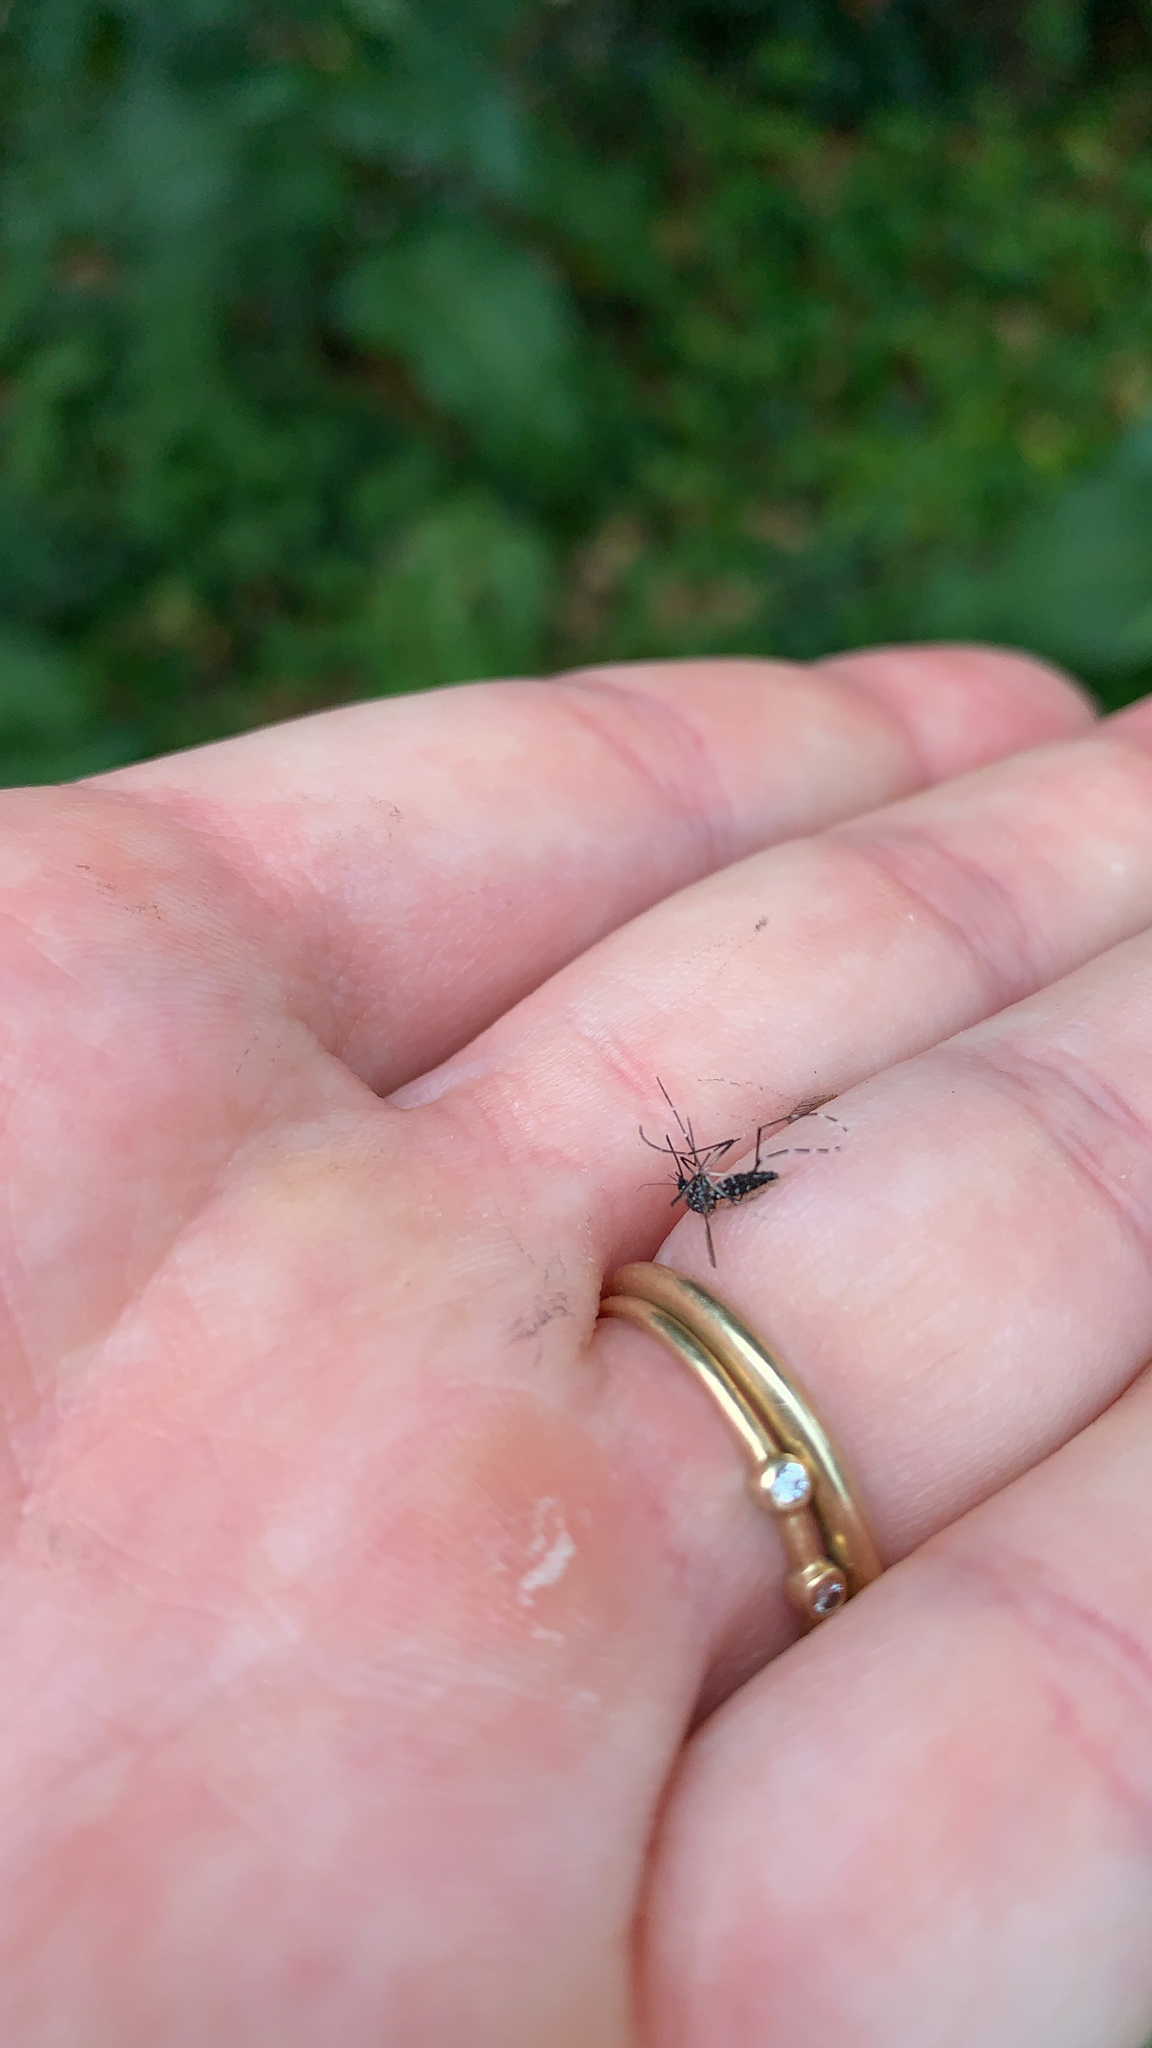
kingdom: Animalia
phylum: Arthropoda
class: Insecta
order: Diptera
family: Culicidae
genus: Aedes
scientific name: Aedes albopictus
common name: Tiger mosquito
